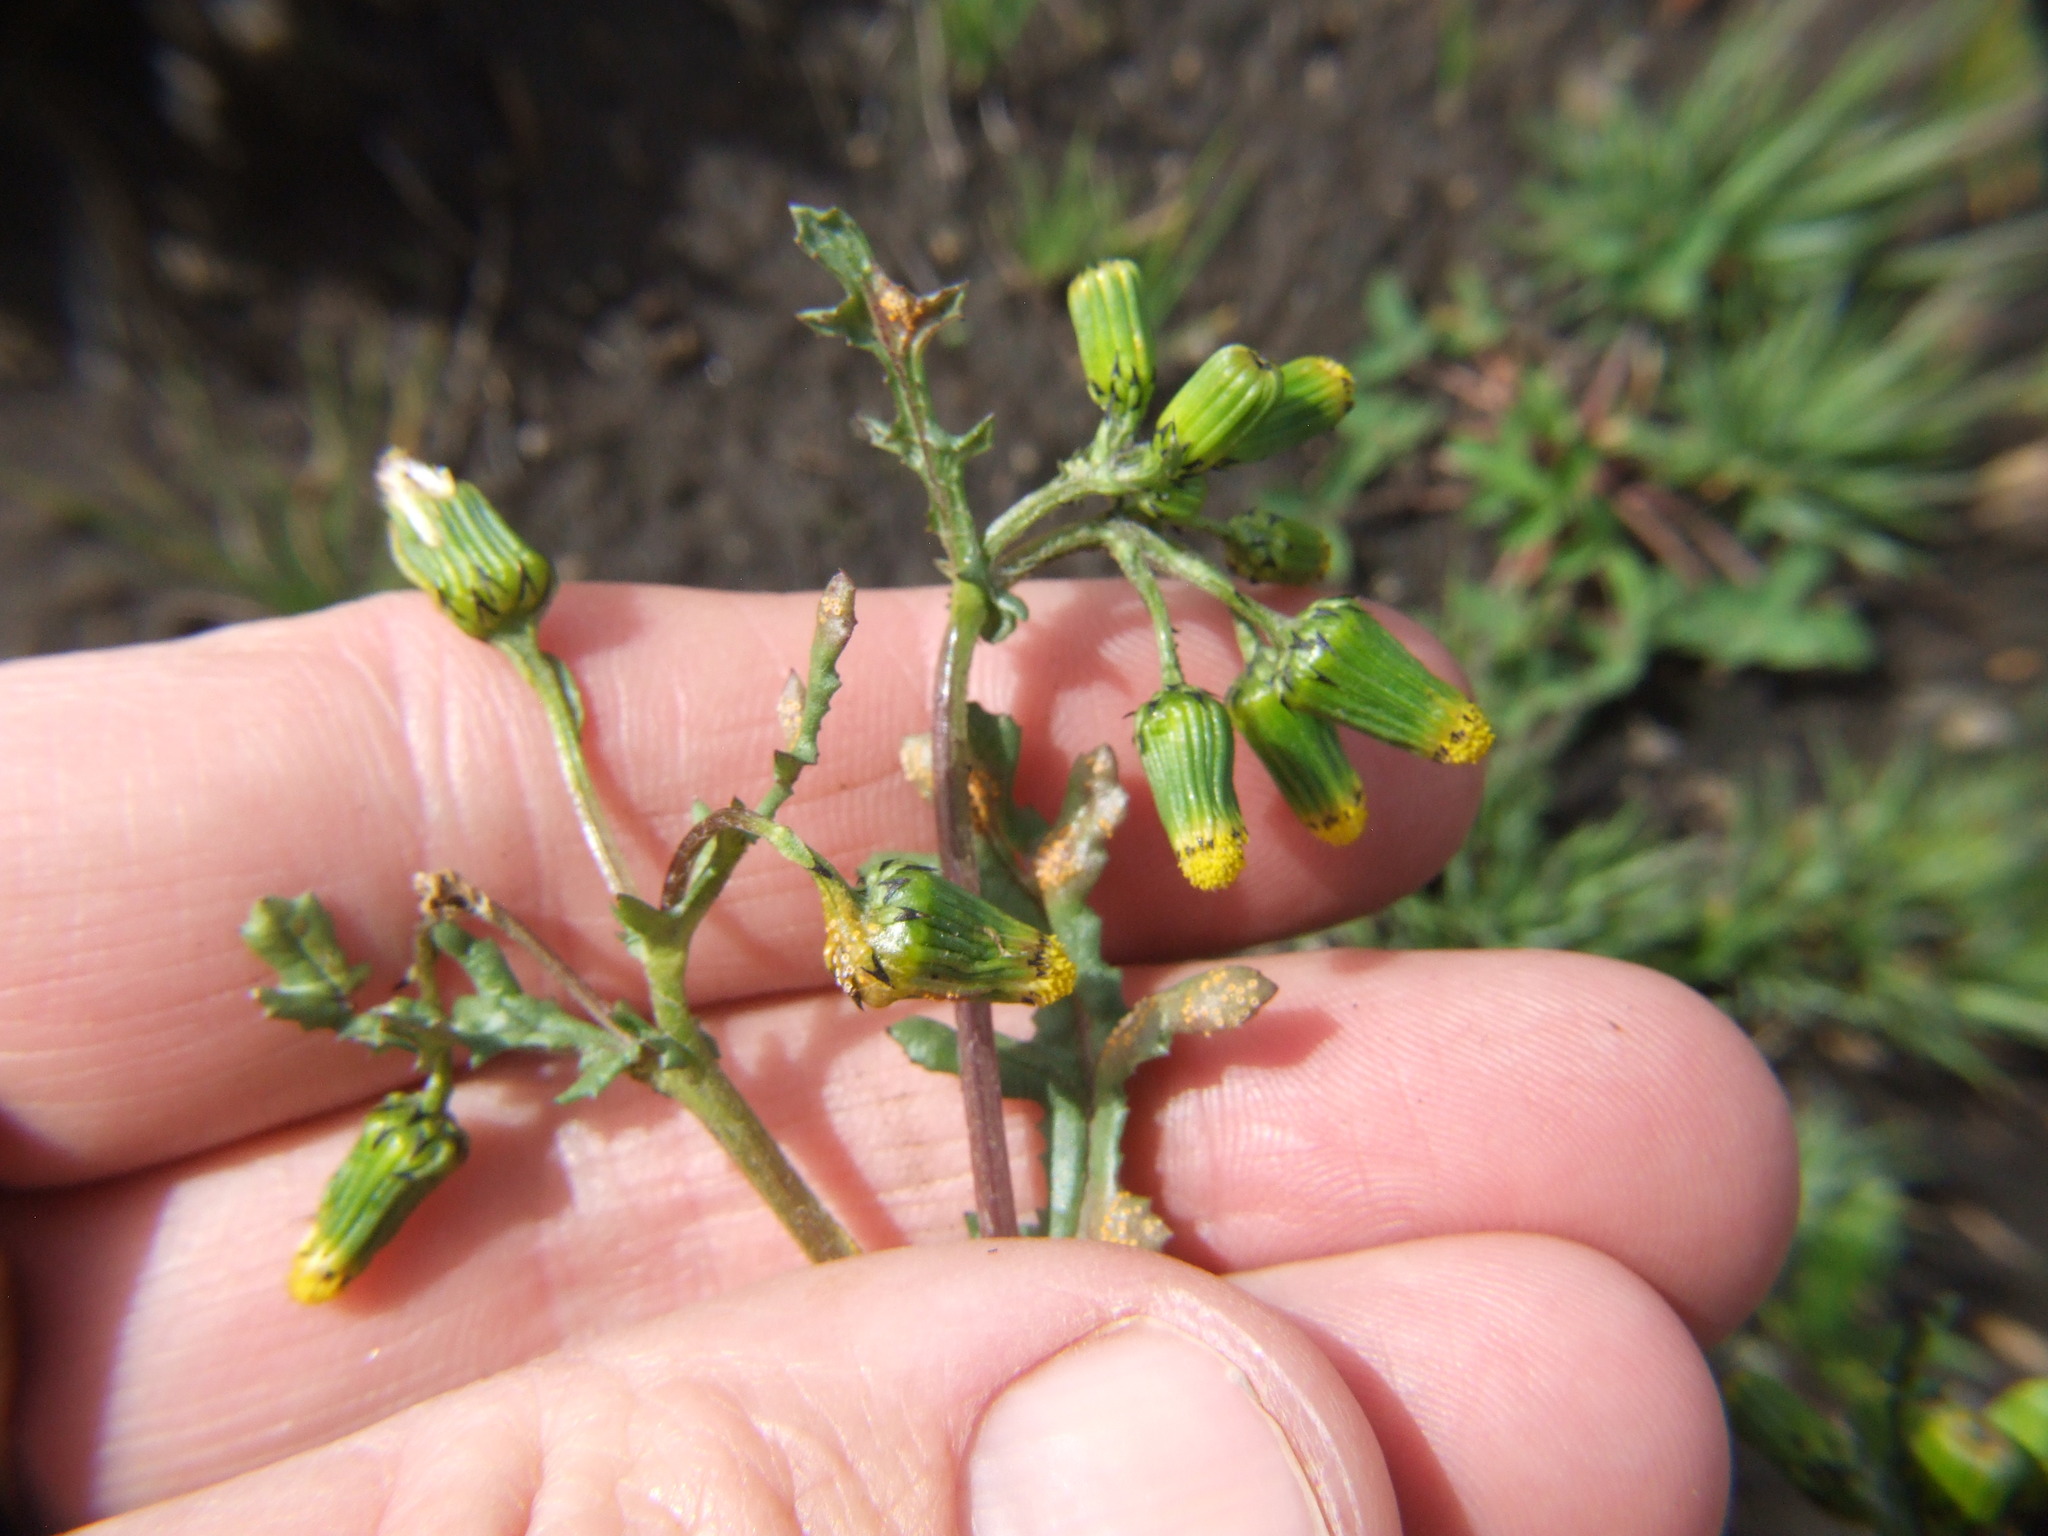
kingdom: Plantae
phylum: Tracheophyta
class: Magnoliopsida
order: Asterales
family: Asteraceae
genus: Senecio
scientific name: Senecio vulgaris
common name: Old-man-in-the-spring
